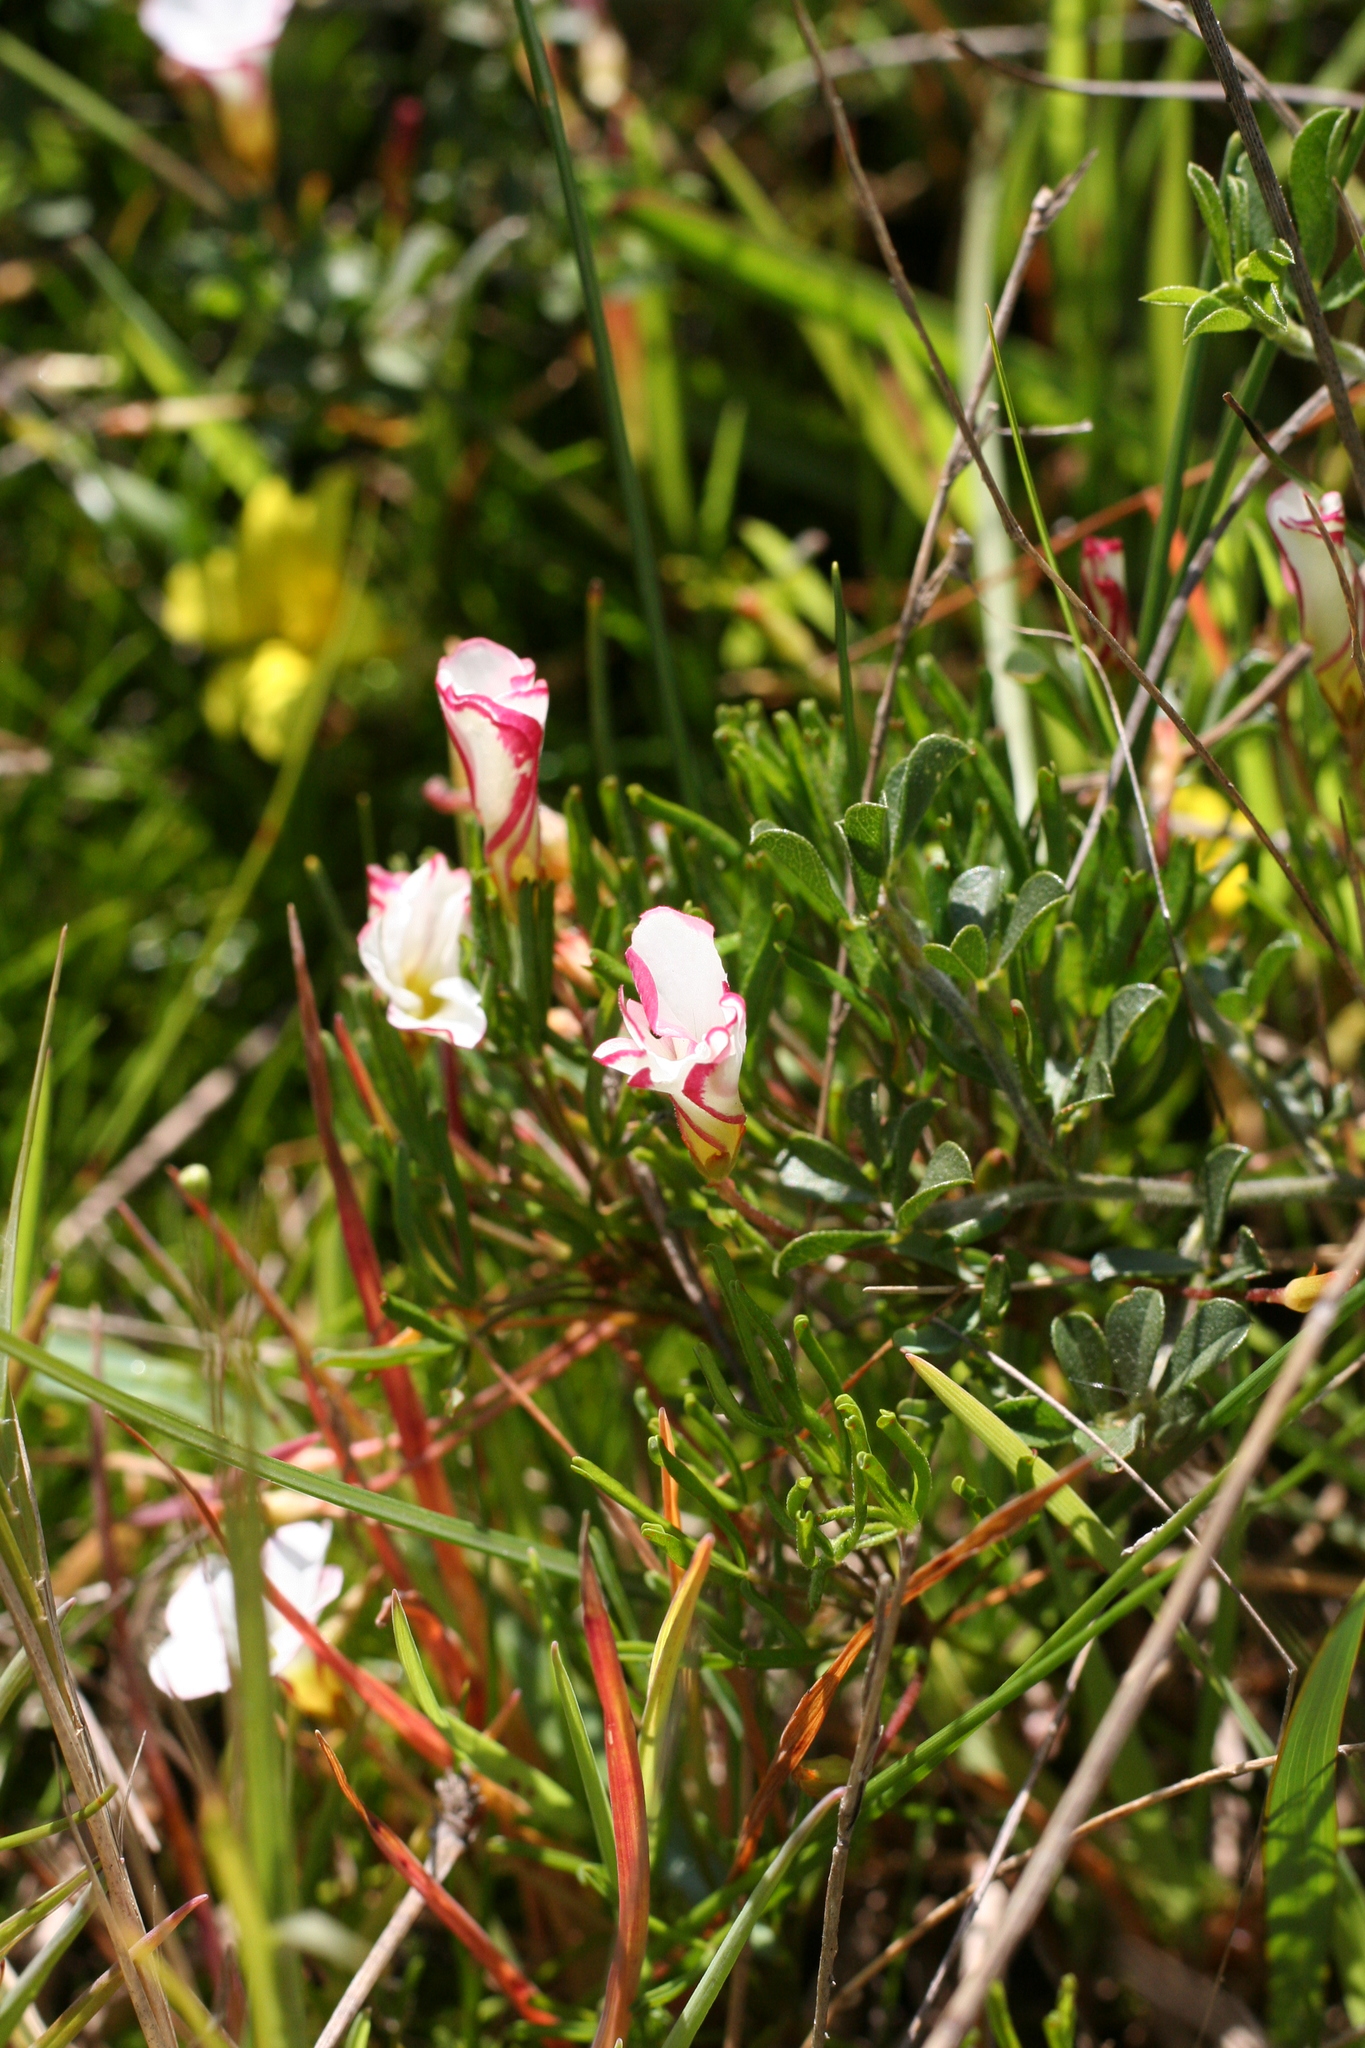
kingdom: Plantae
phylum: Tracheophyta
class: Magnoliopsida
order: Oxalidales
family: Oxalidaceae
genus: Oxalis
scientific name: Oxalis versicolor
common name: Peppermint rock oxalis
